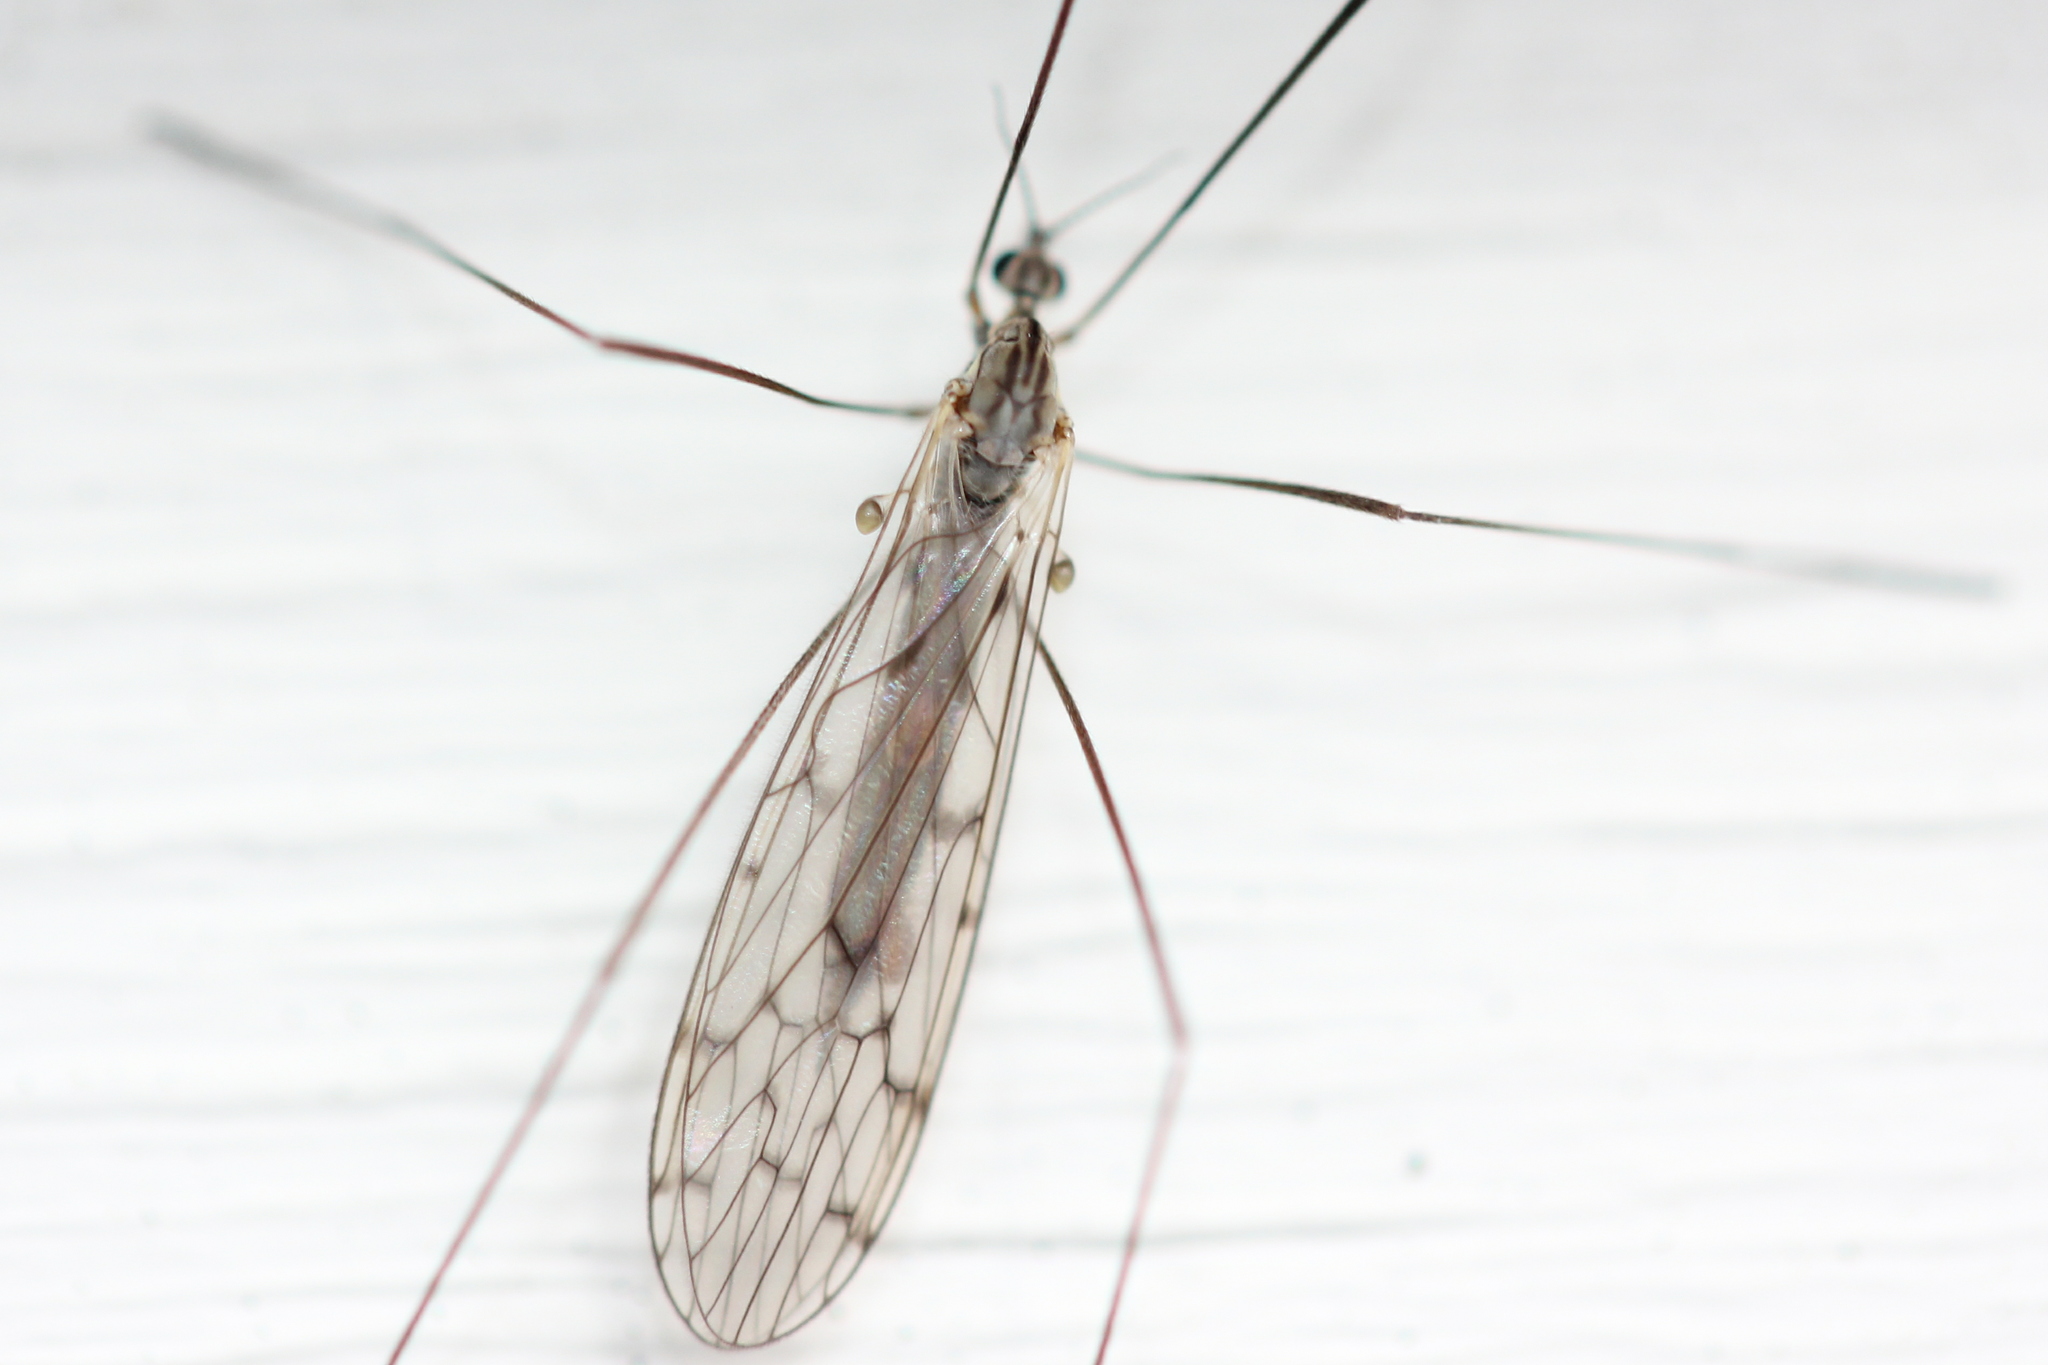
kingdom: Animalia
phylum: Arthropoda
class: Insecta
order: Diptera
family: Limoniidae
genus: Symplecta
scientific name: Symplecta cana
